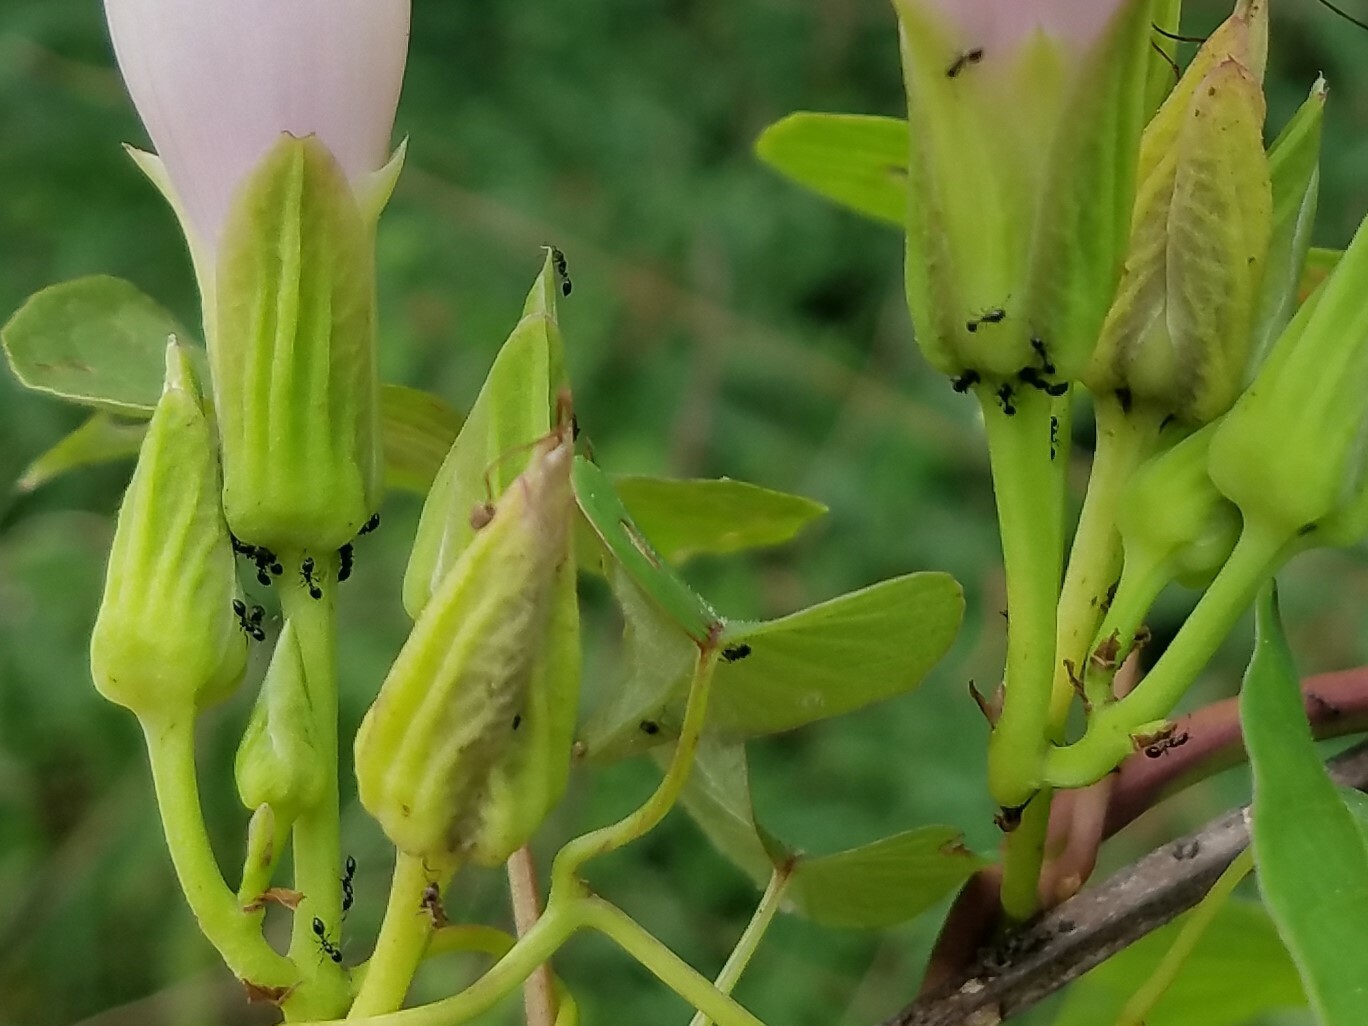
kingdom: Animalia
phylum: Arthropoda
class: Insecta
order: Hymenoptera
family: Formicidae
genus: Monomorium
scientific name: Monomorium minimum
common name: Little black ant
